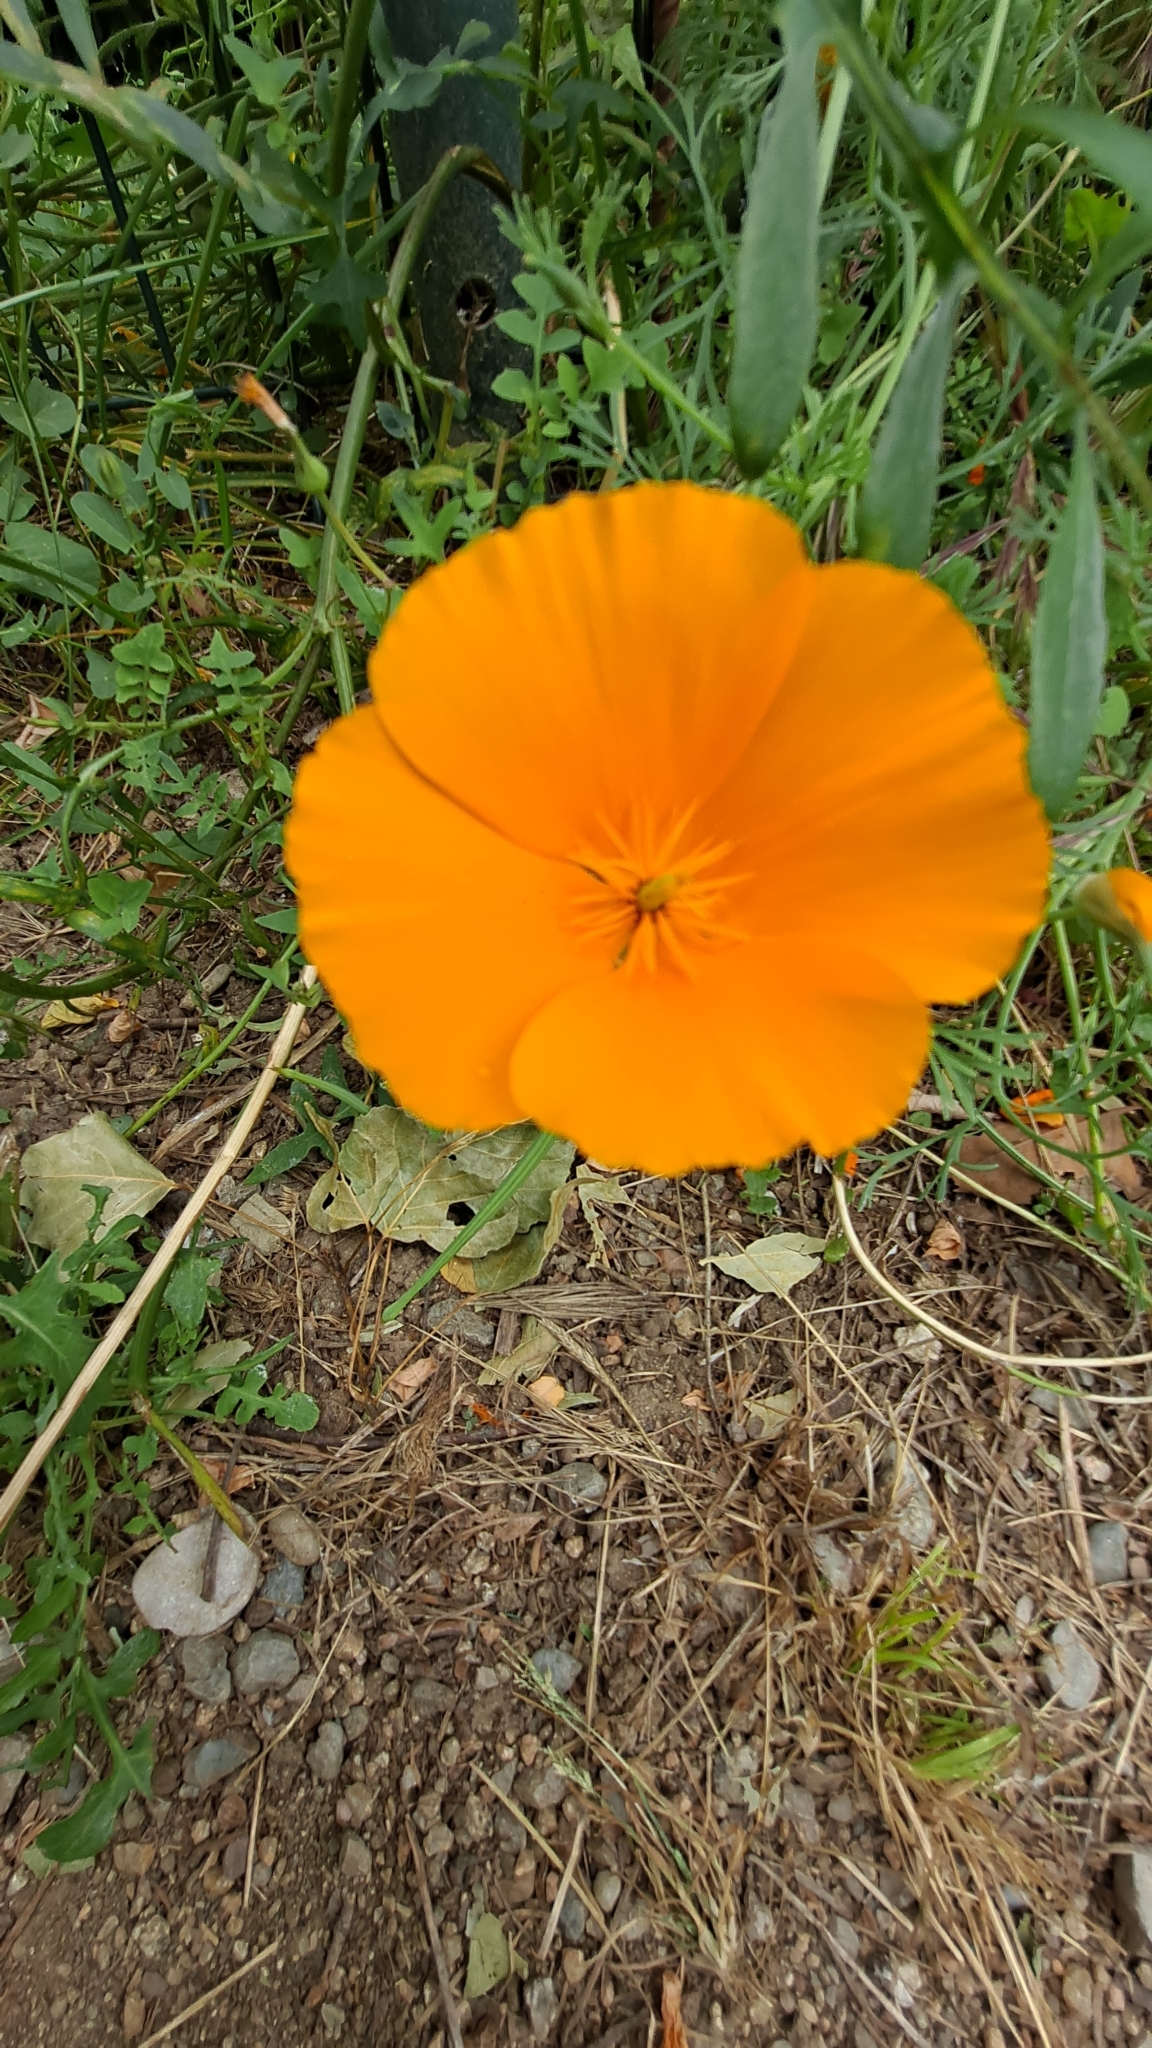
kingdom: Plantae
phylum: Tracheophyta
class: Magnoliopsida
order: Ranunculales
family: Papaveraceae
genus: Eschscholzia
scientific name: Eschscholzia californica
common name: California poppy
